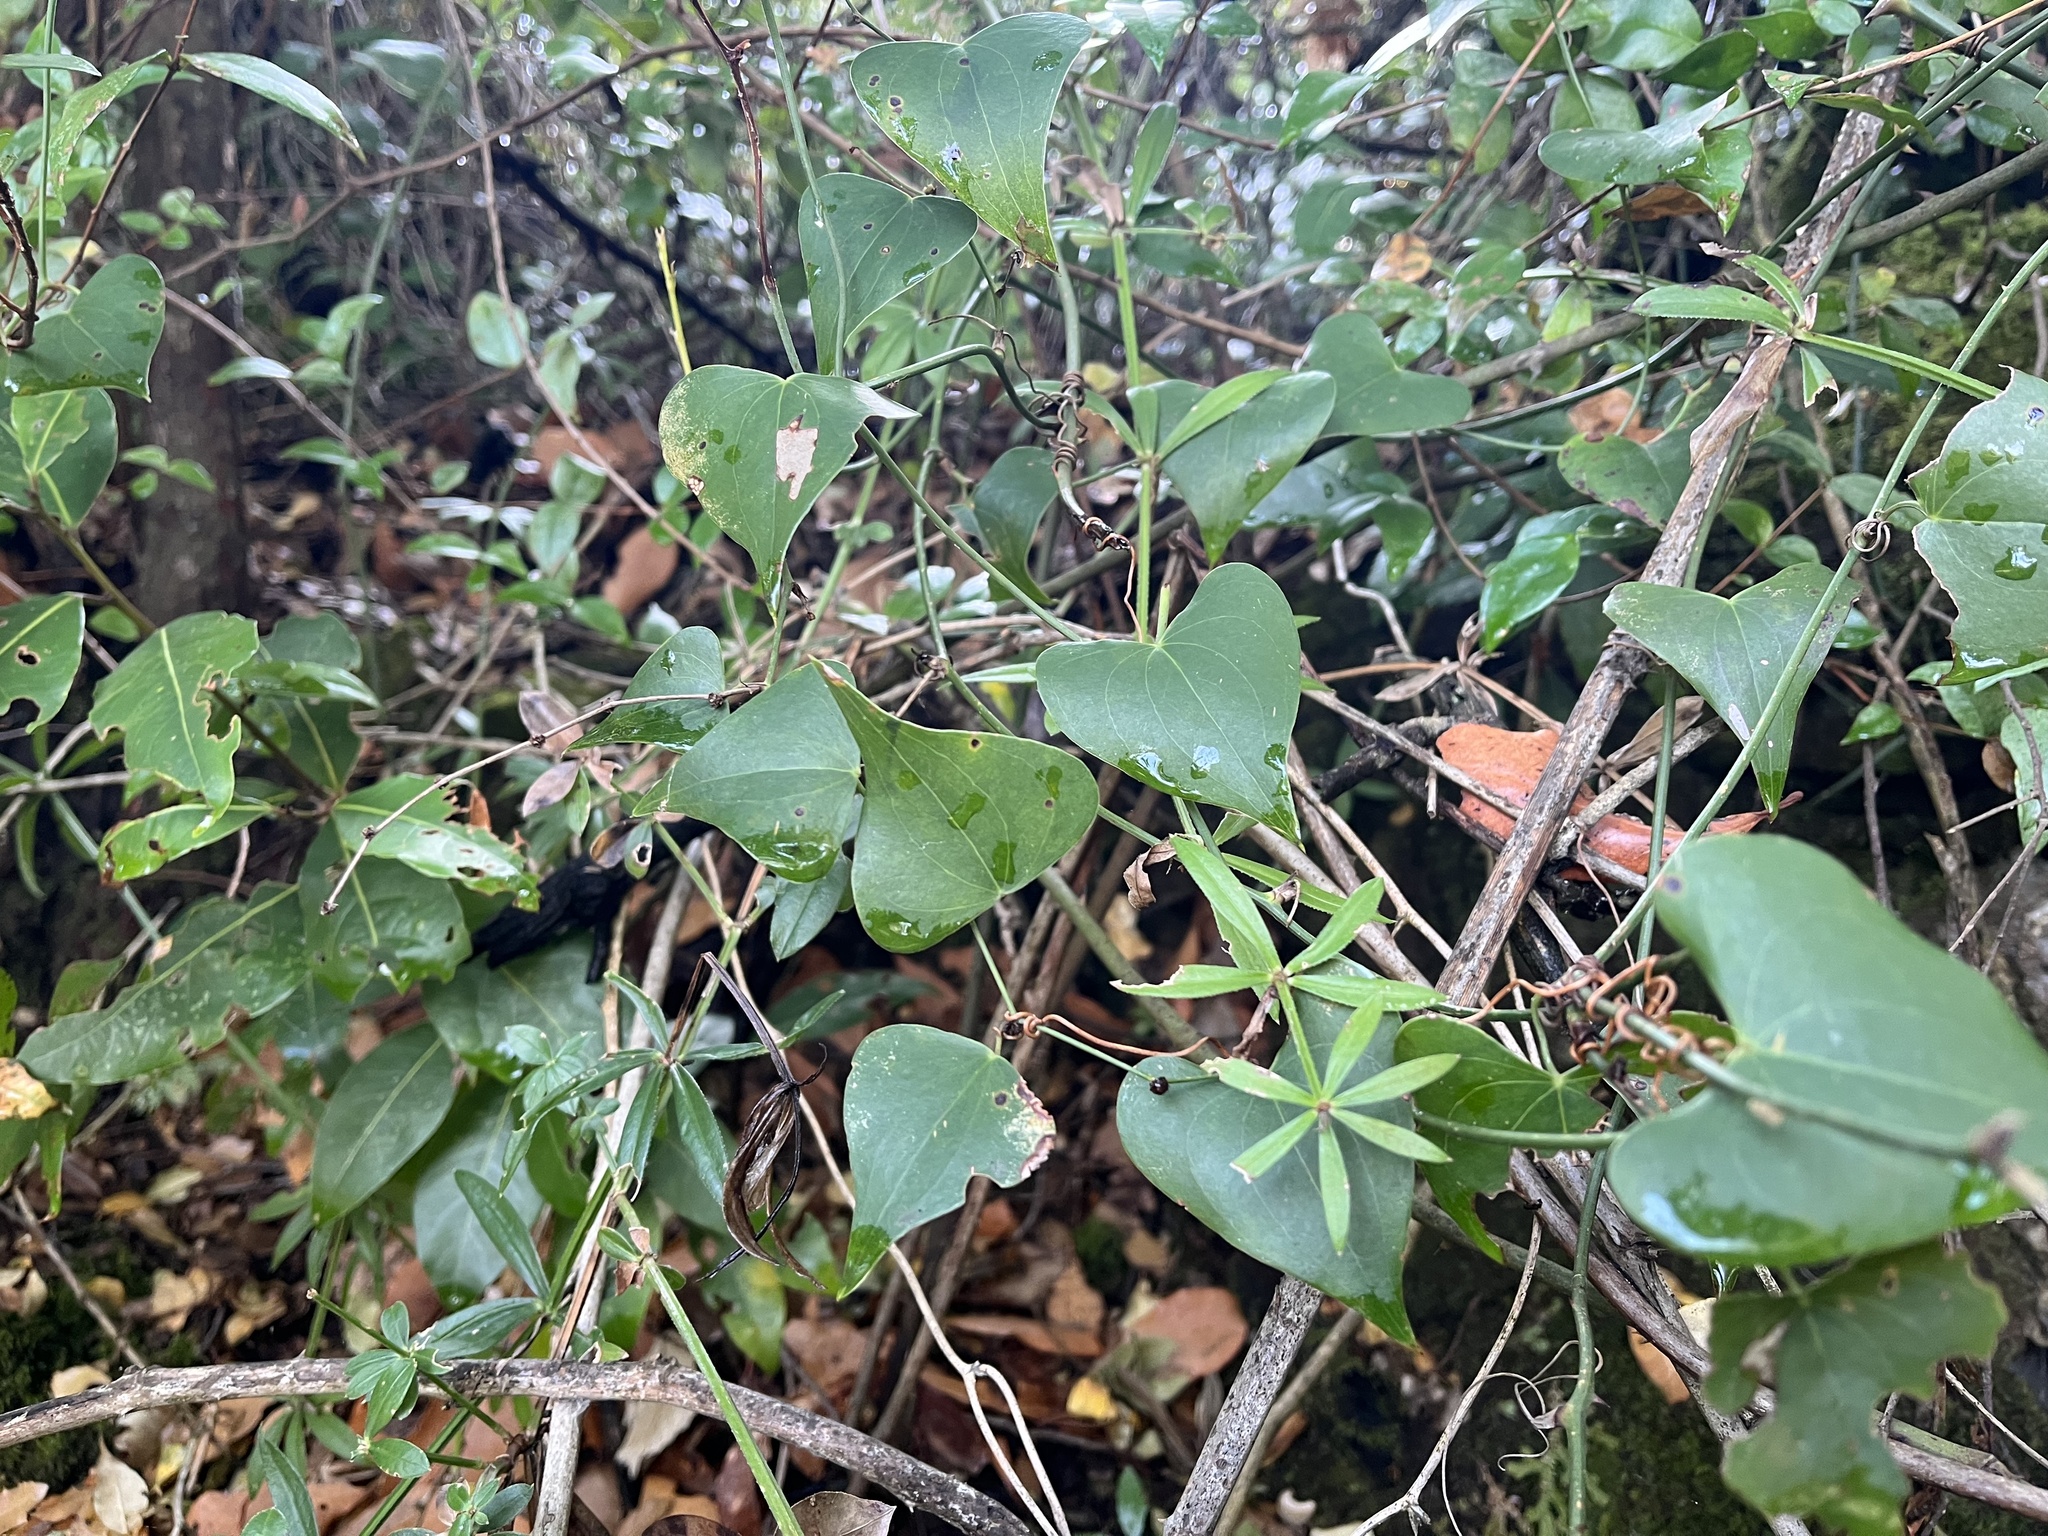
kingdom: Plantae
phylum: Tracheophyta
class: Liliopsida
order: Liliales
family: Smilacaceae
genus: Smilax
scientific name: Smilax aspera
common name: Common smilax
